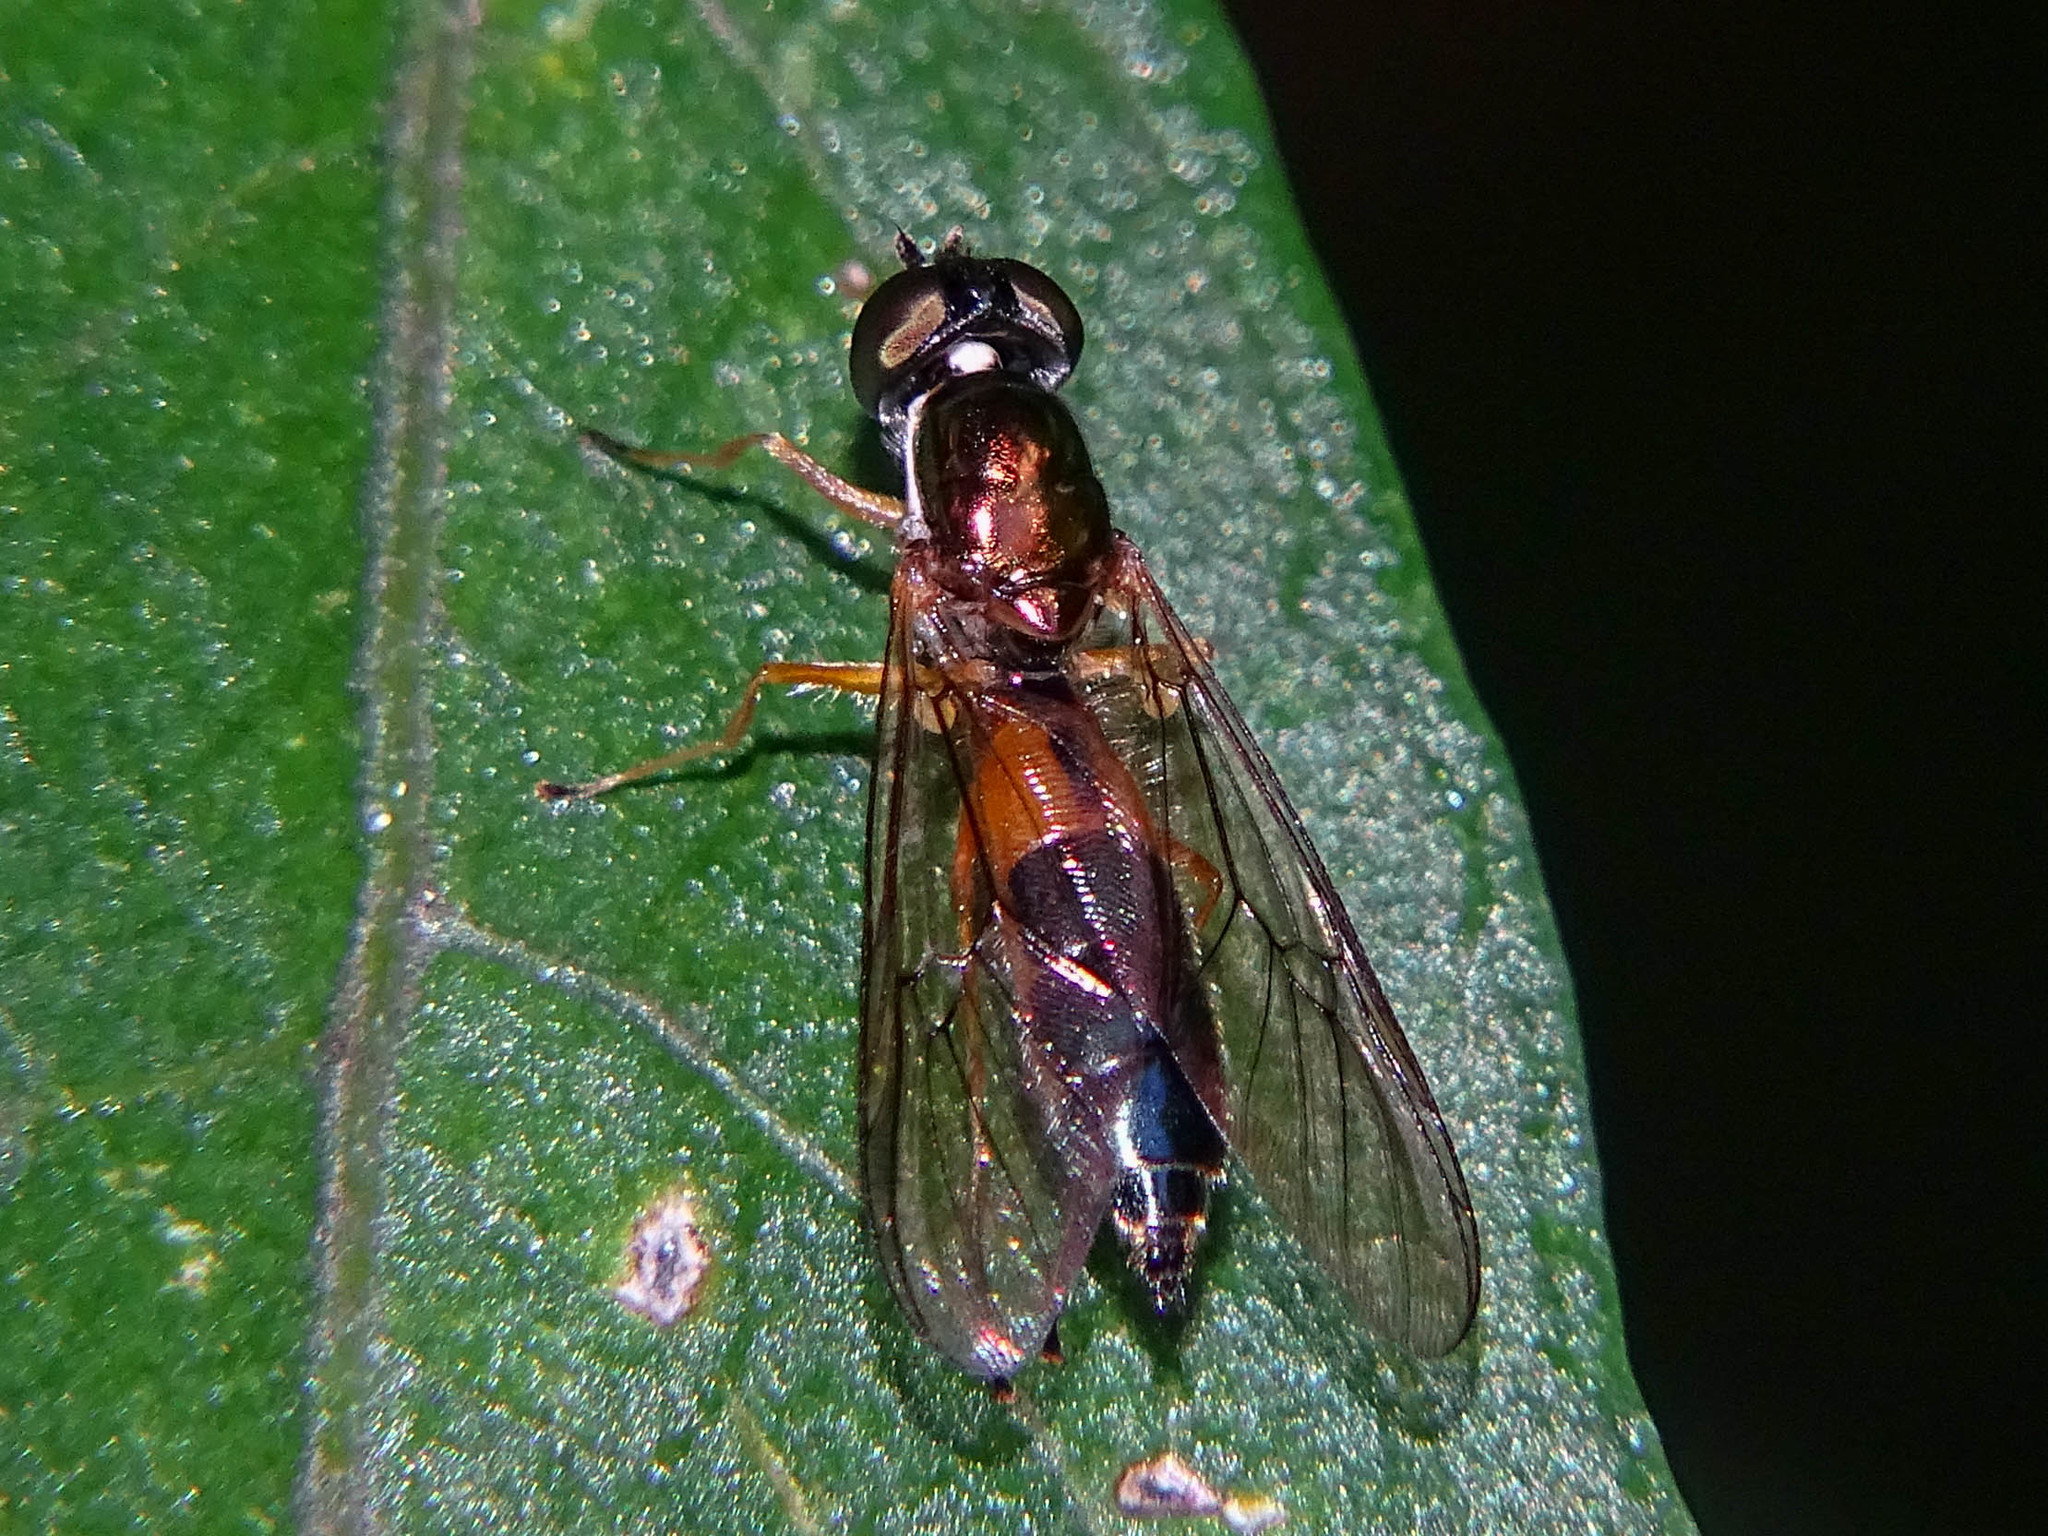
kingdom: Animalia
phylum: Arthropoda
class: Insecta
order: Diptera
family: Stratiomyidae
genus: Sargus
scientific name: Sargus bipunctatus
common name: Twin-spot centurion
